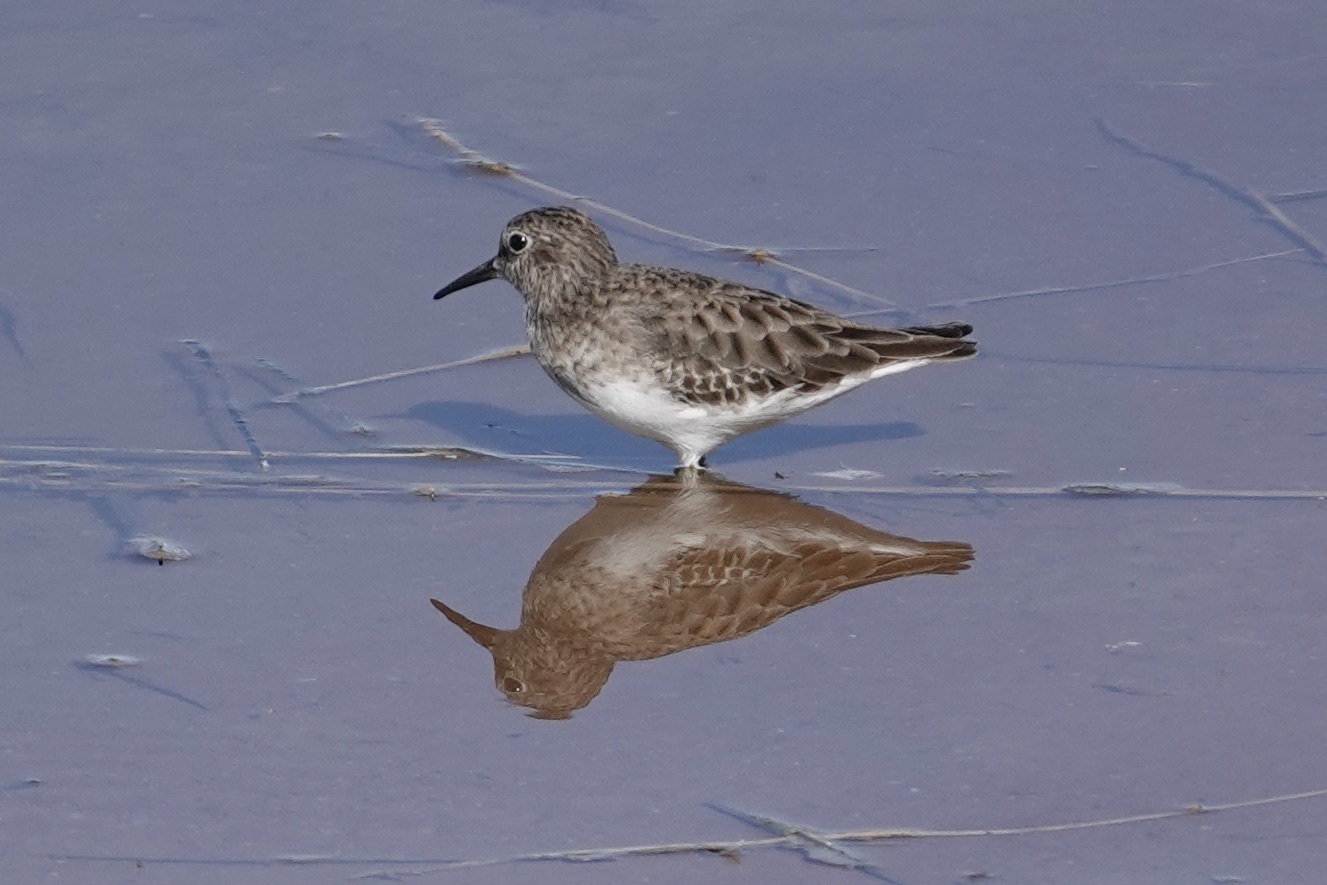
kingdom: Animalia
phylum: Chordata
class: Aves
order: Charadriiformes
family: Scolopacidae
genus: Calidris
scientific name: Calidris minutilla
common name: Least sandpiper
